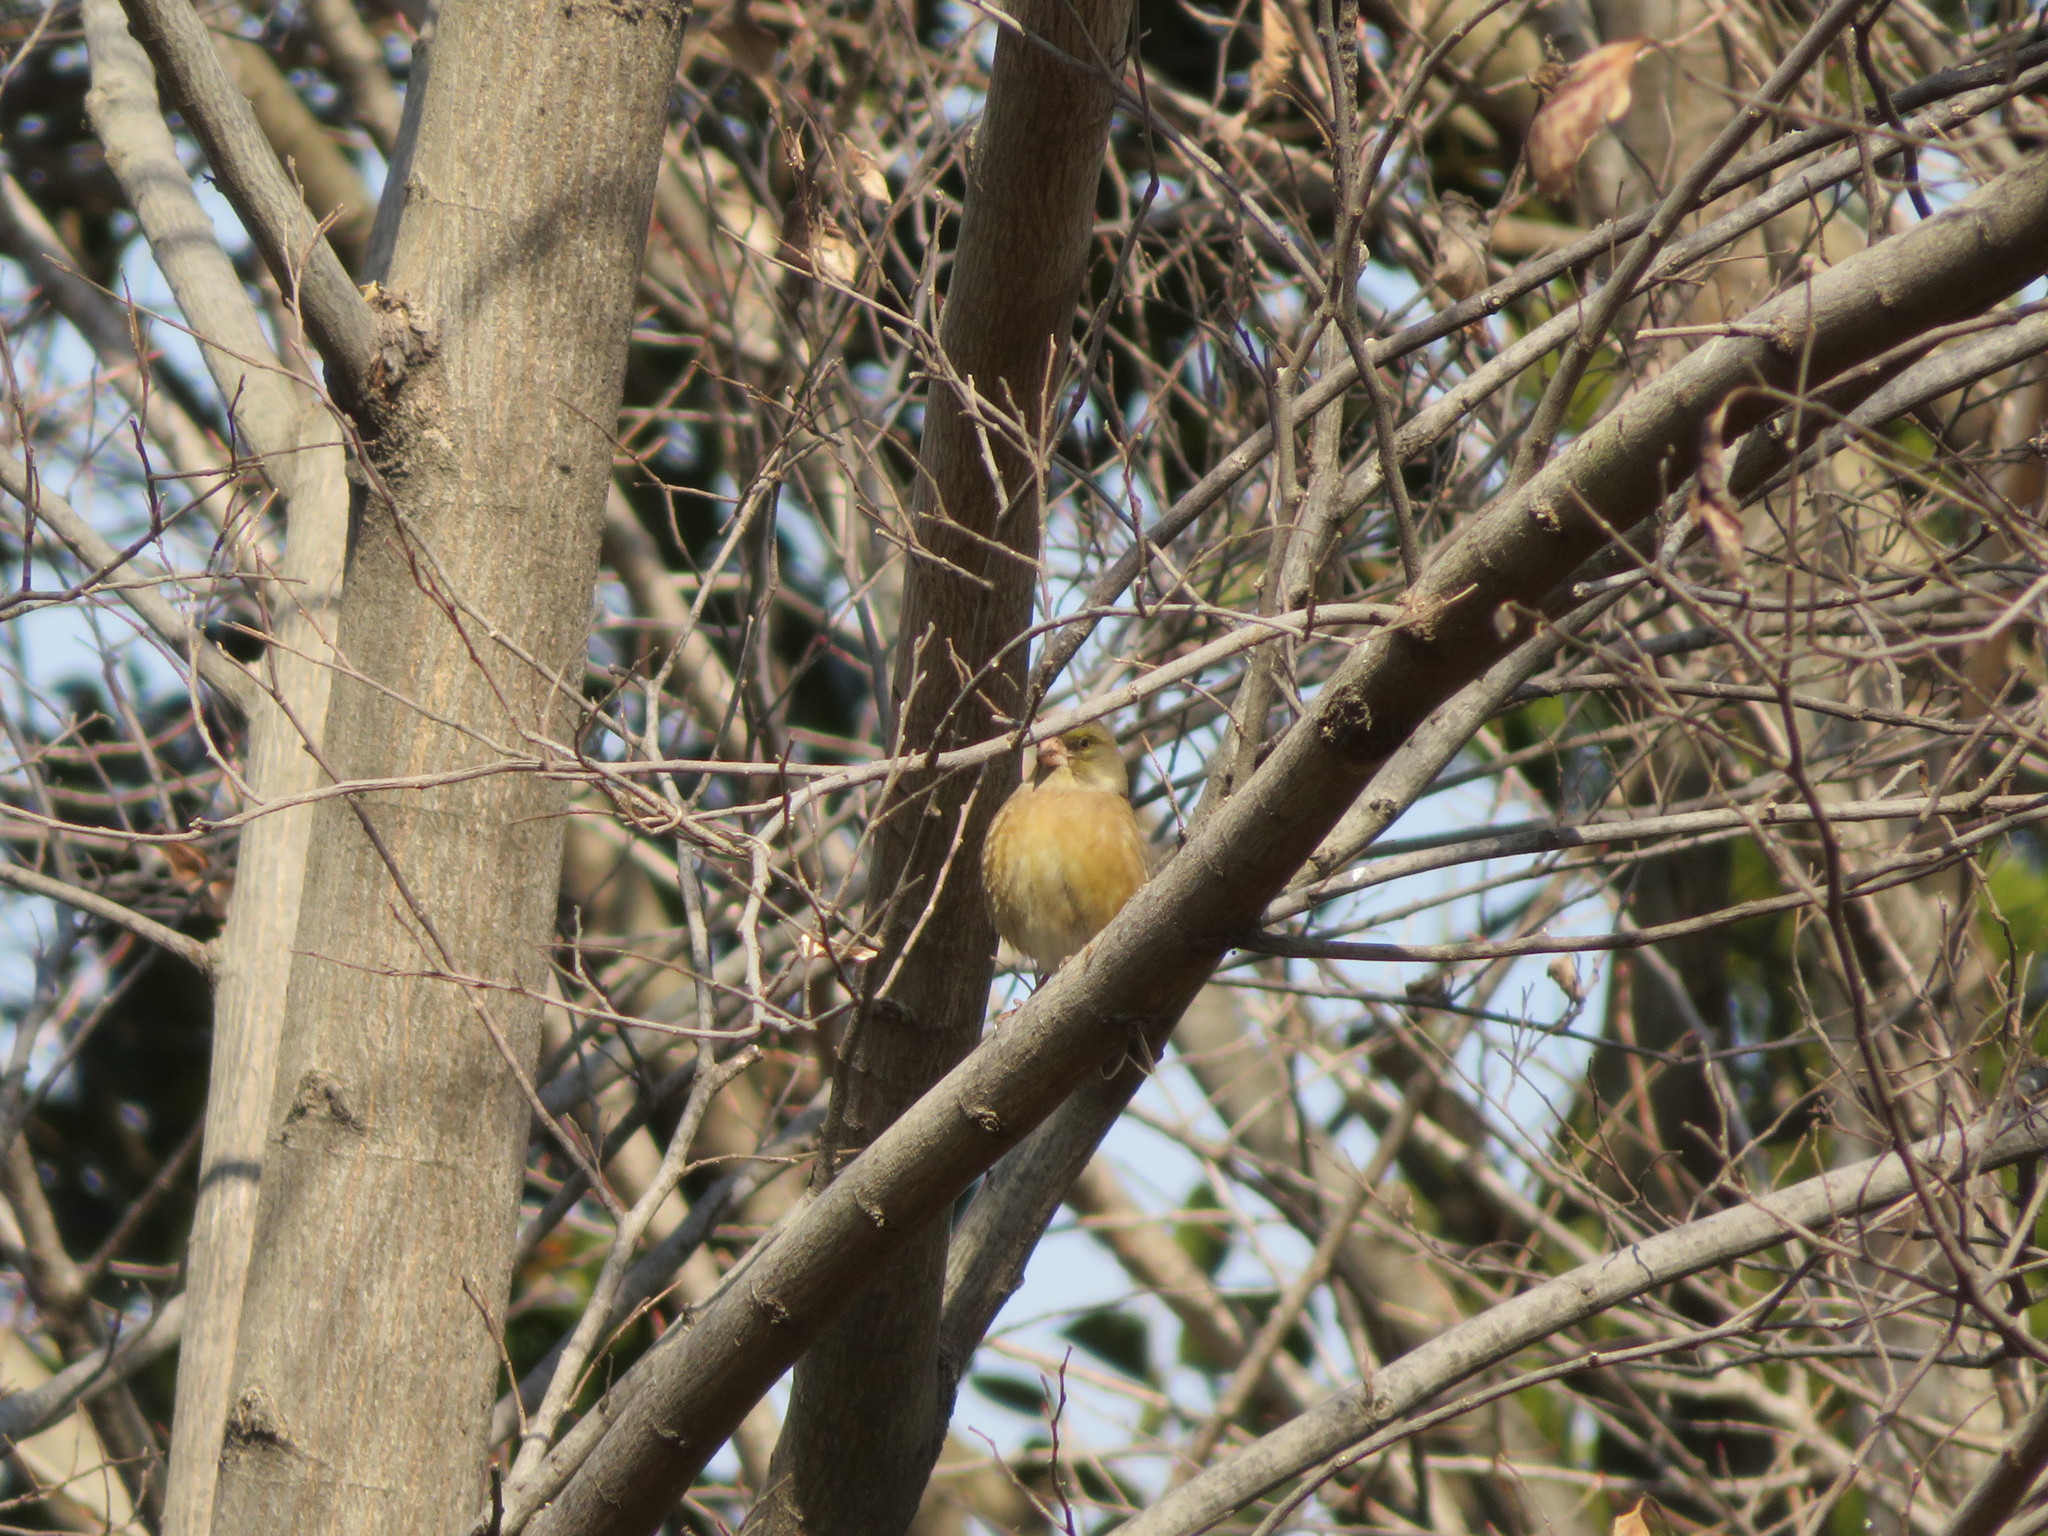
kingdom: Plantae
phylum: Tracheophyta
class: Liliopsida
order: Poales
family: Poaceae
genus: Chloris
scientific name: Chloris sinica
